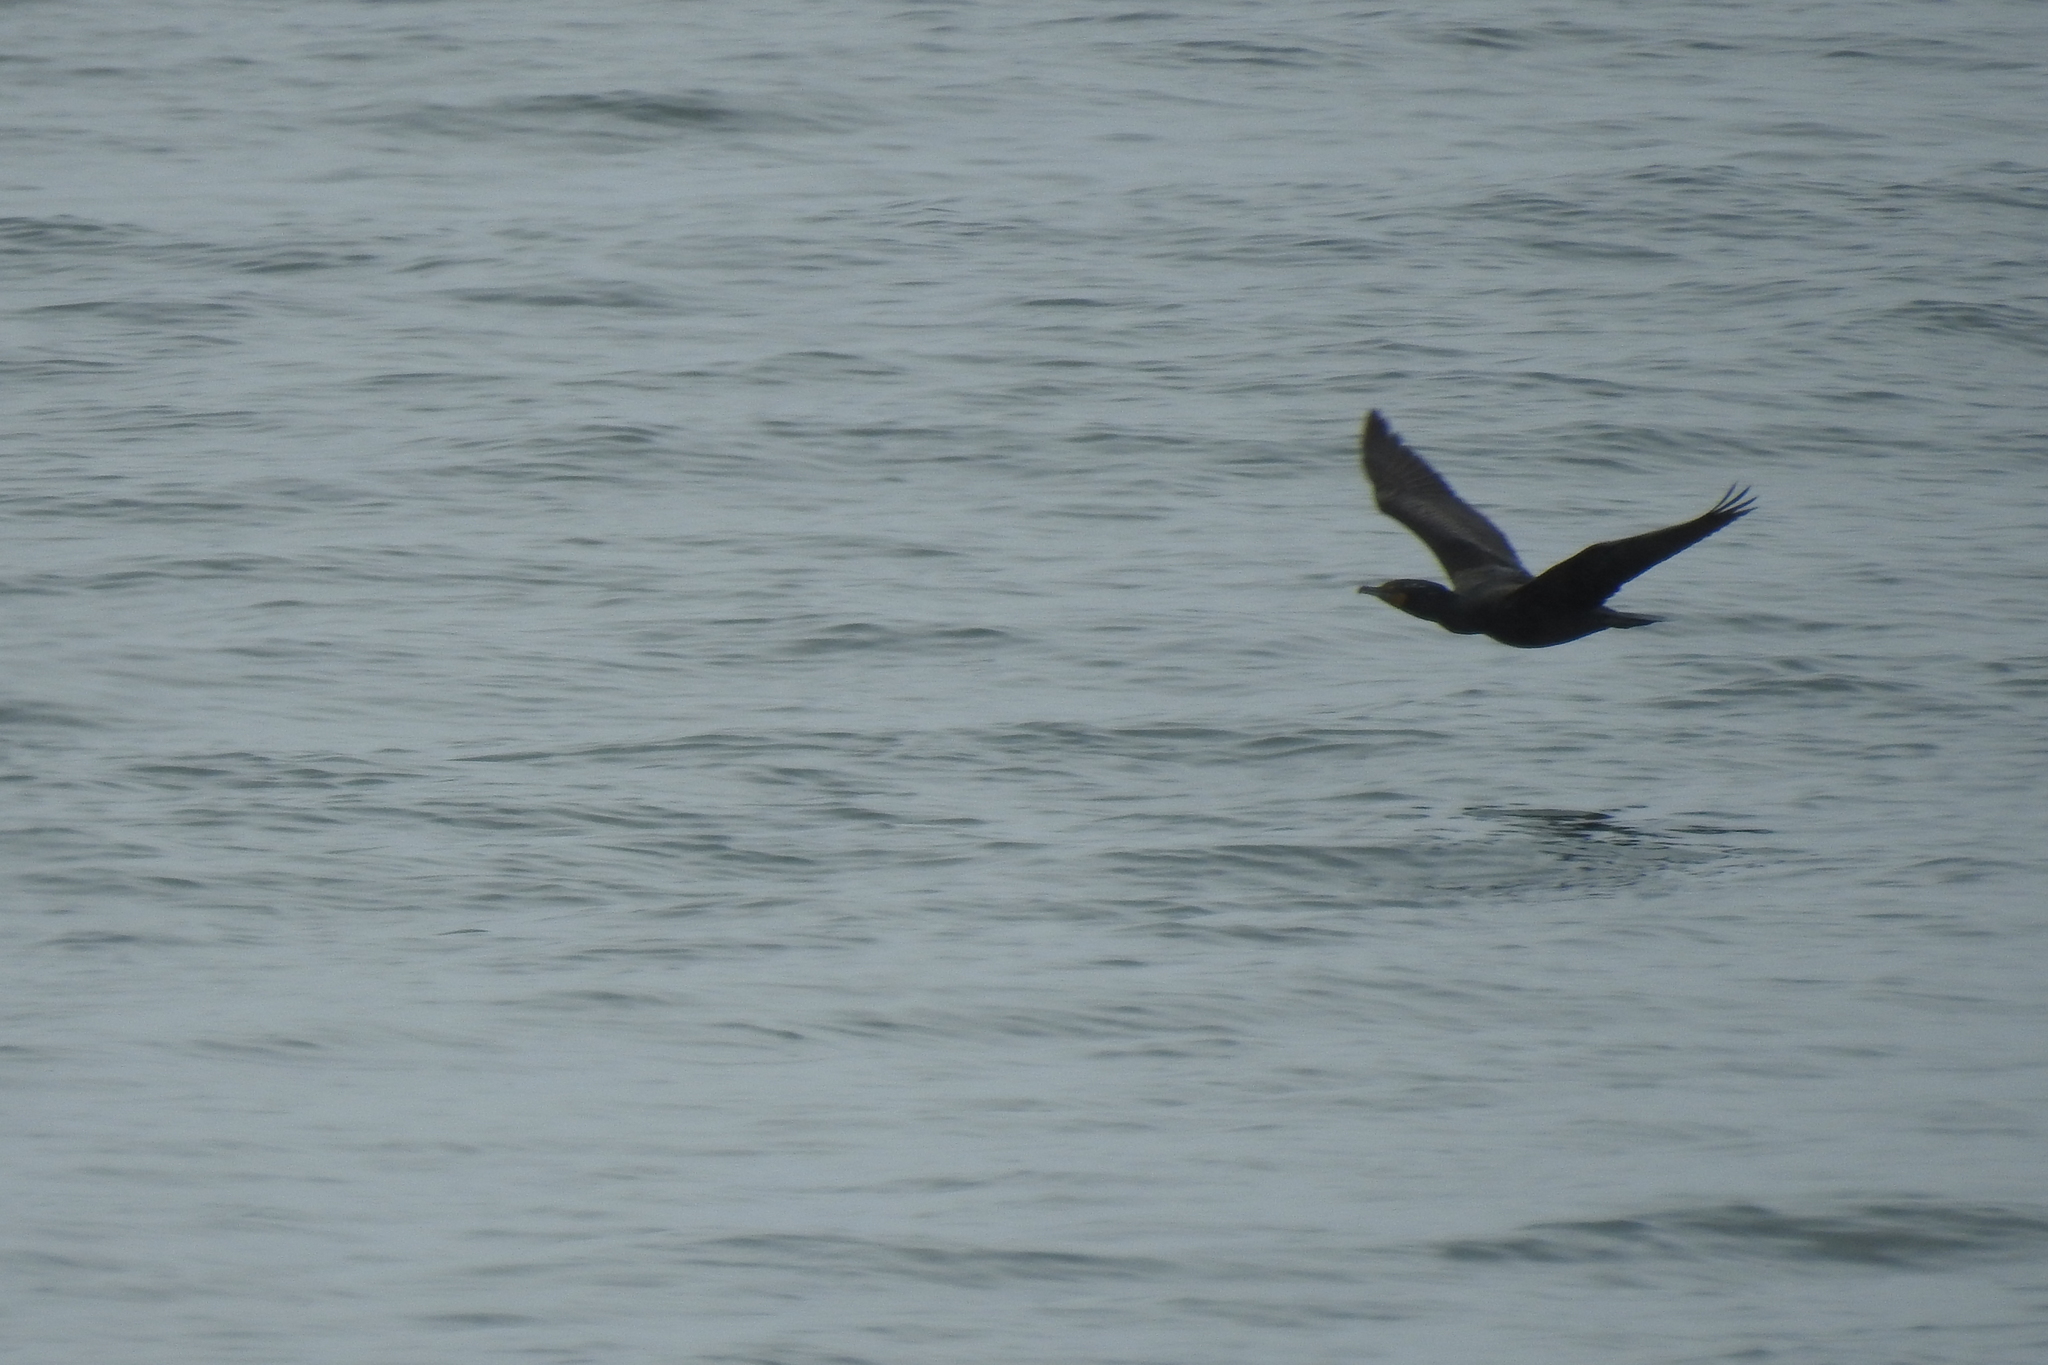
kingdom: Animalia
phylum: Chordata
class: Aves
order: Suliformes
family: Phalacrocoracidae
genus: Phalacrocorax
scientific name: Phalacrocorax auritus
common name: Double-crested cormorant
